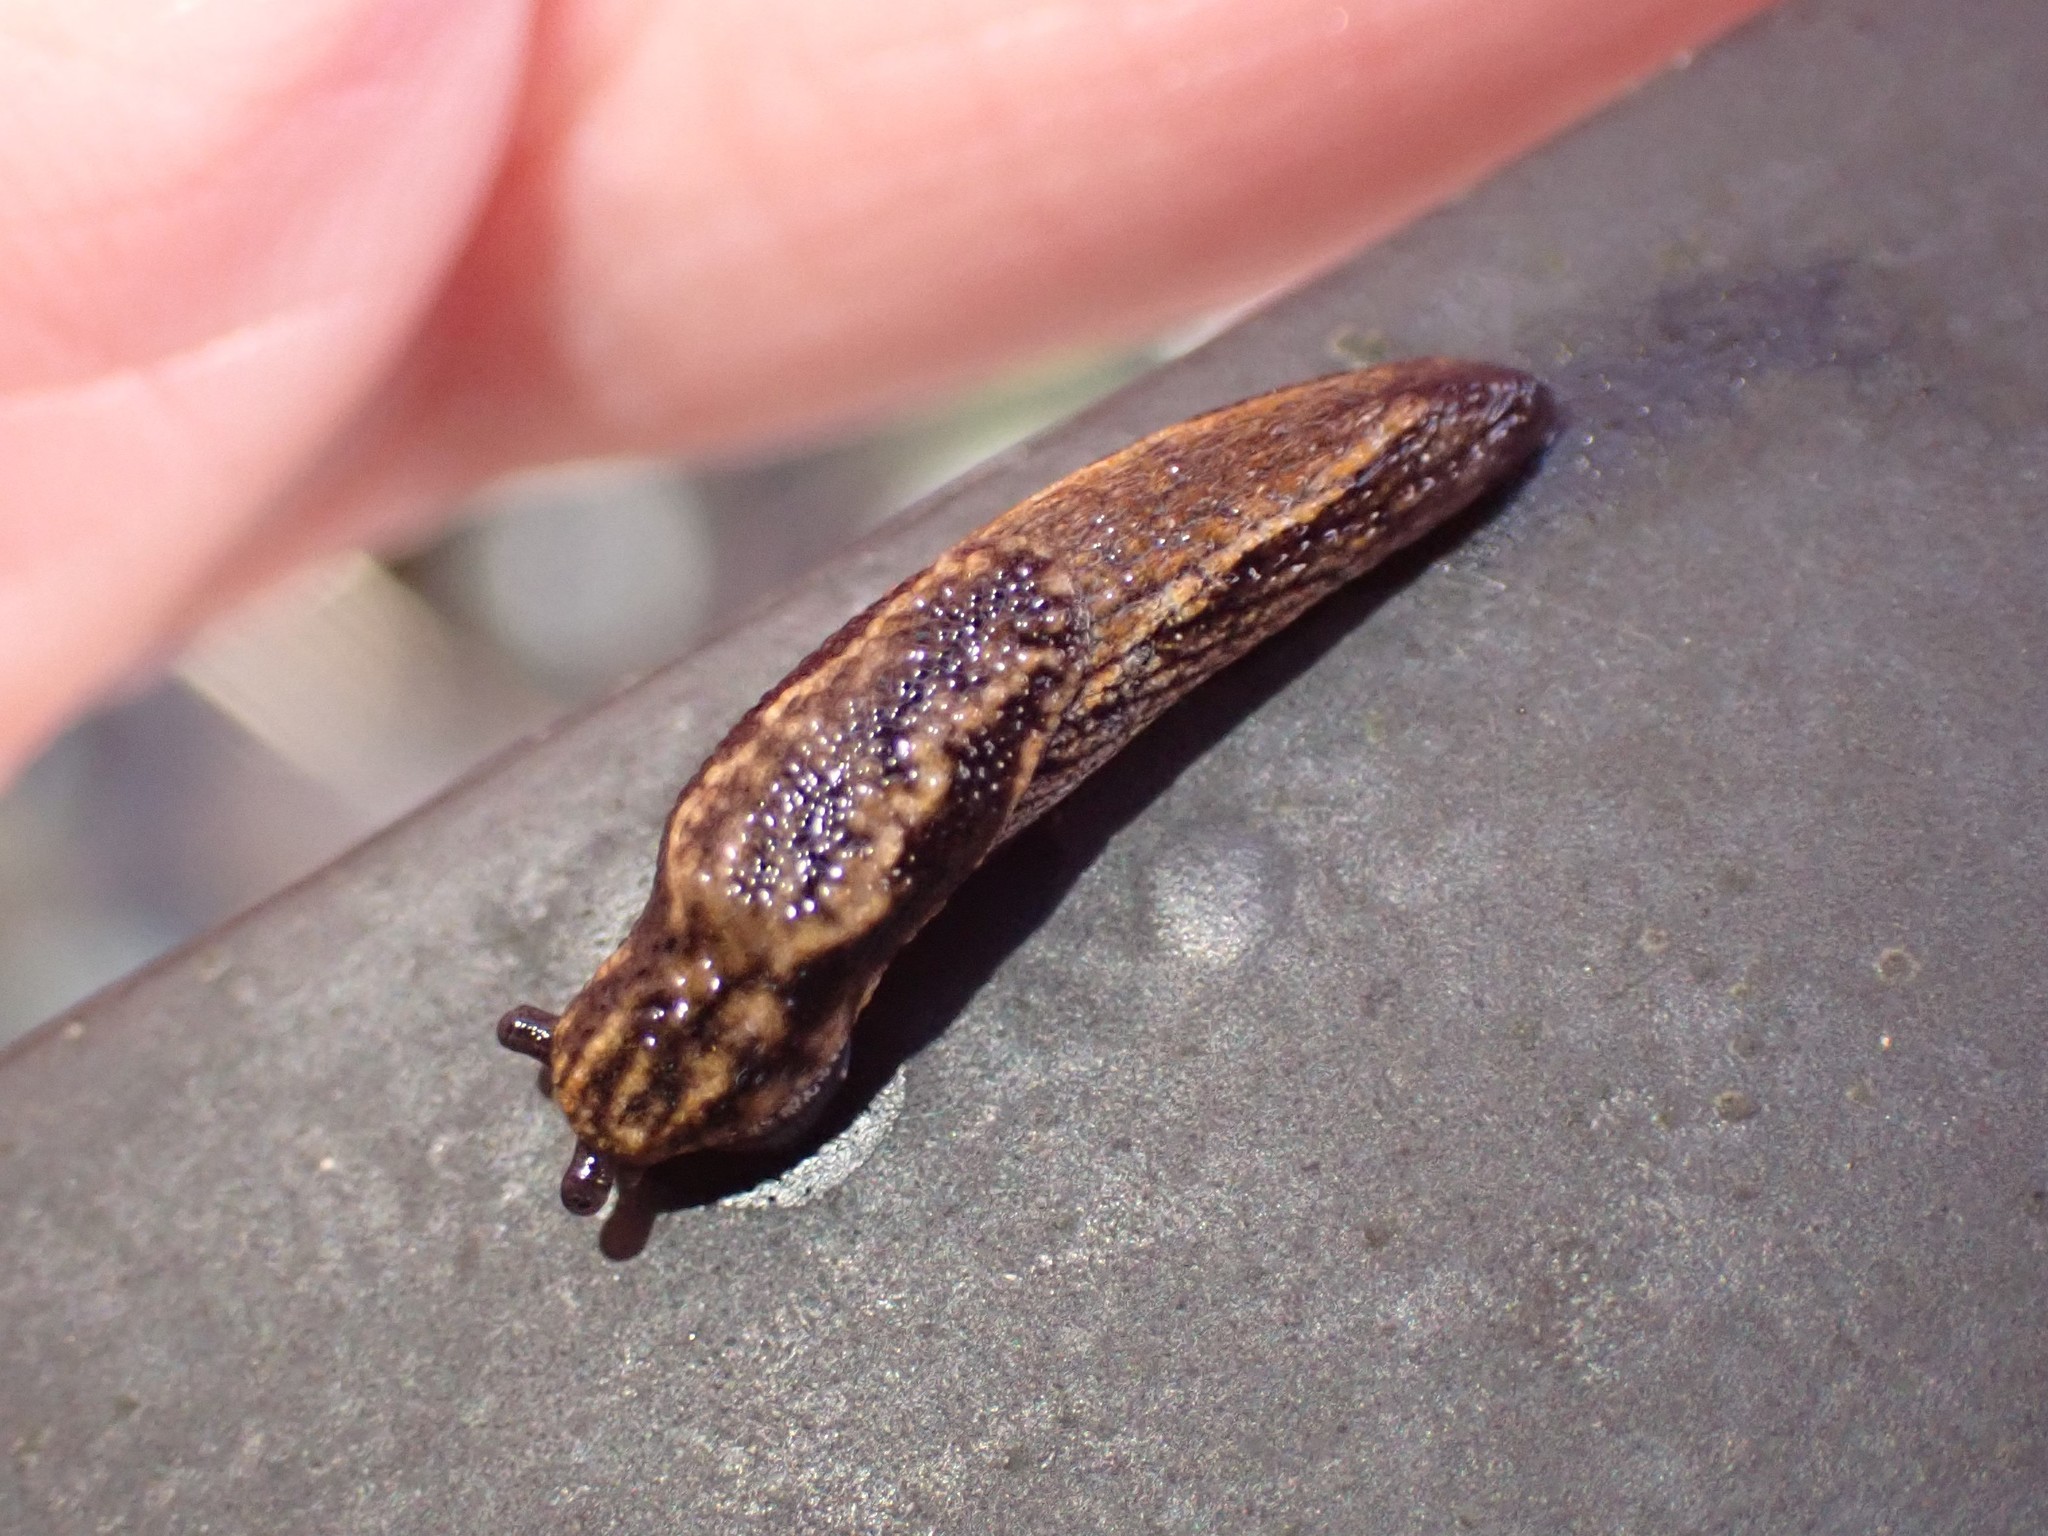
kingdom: Animalia
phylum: Mollusca
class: Gastropoda
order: Stylommatophora
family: Ariolimacidae
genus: Prophysaon
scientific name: Prophysaon vanattae
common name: Scarletback taildropper
